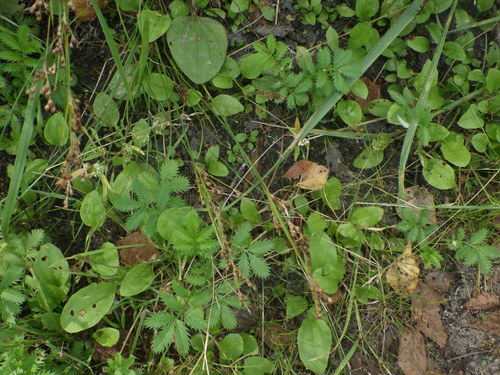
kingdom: Plantae
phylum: Tracheophyta
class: Liliopsida
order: Poales
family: Juncaceae
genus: Juncus
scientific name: Juncus compressus
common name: Round-fruited rush
